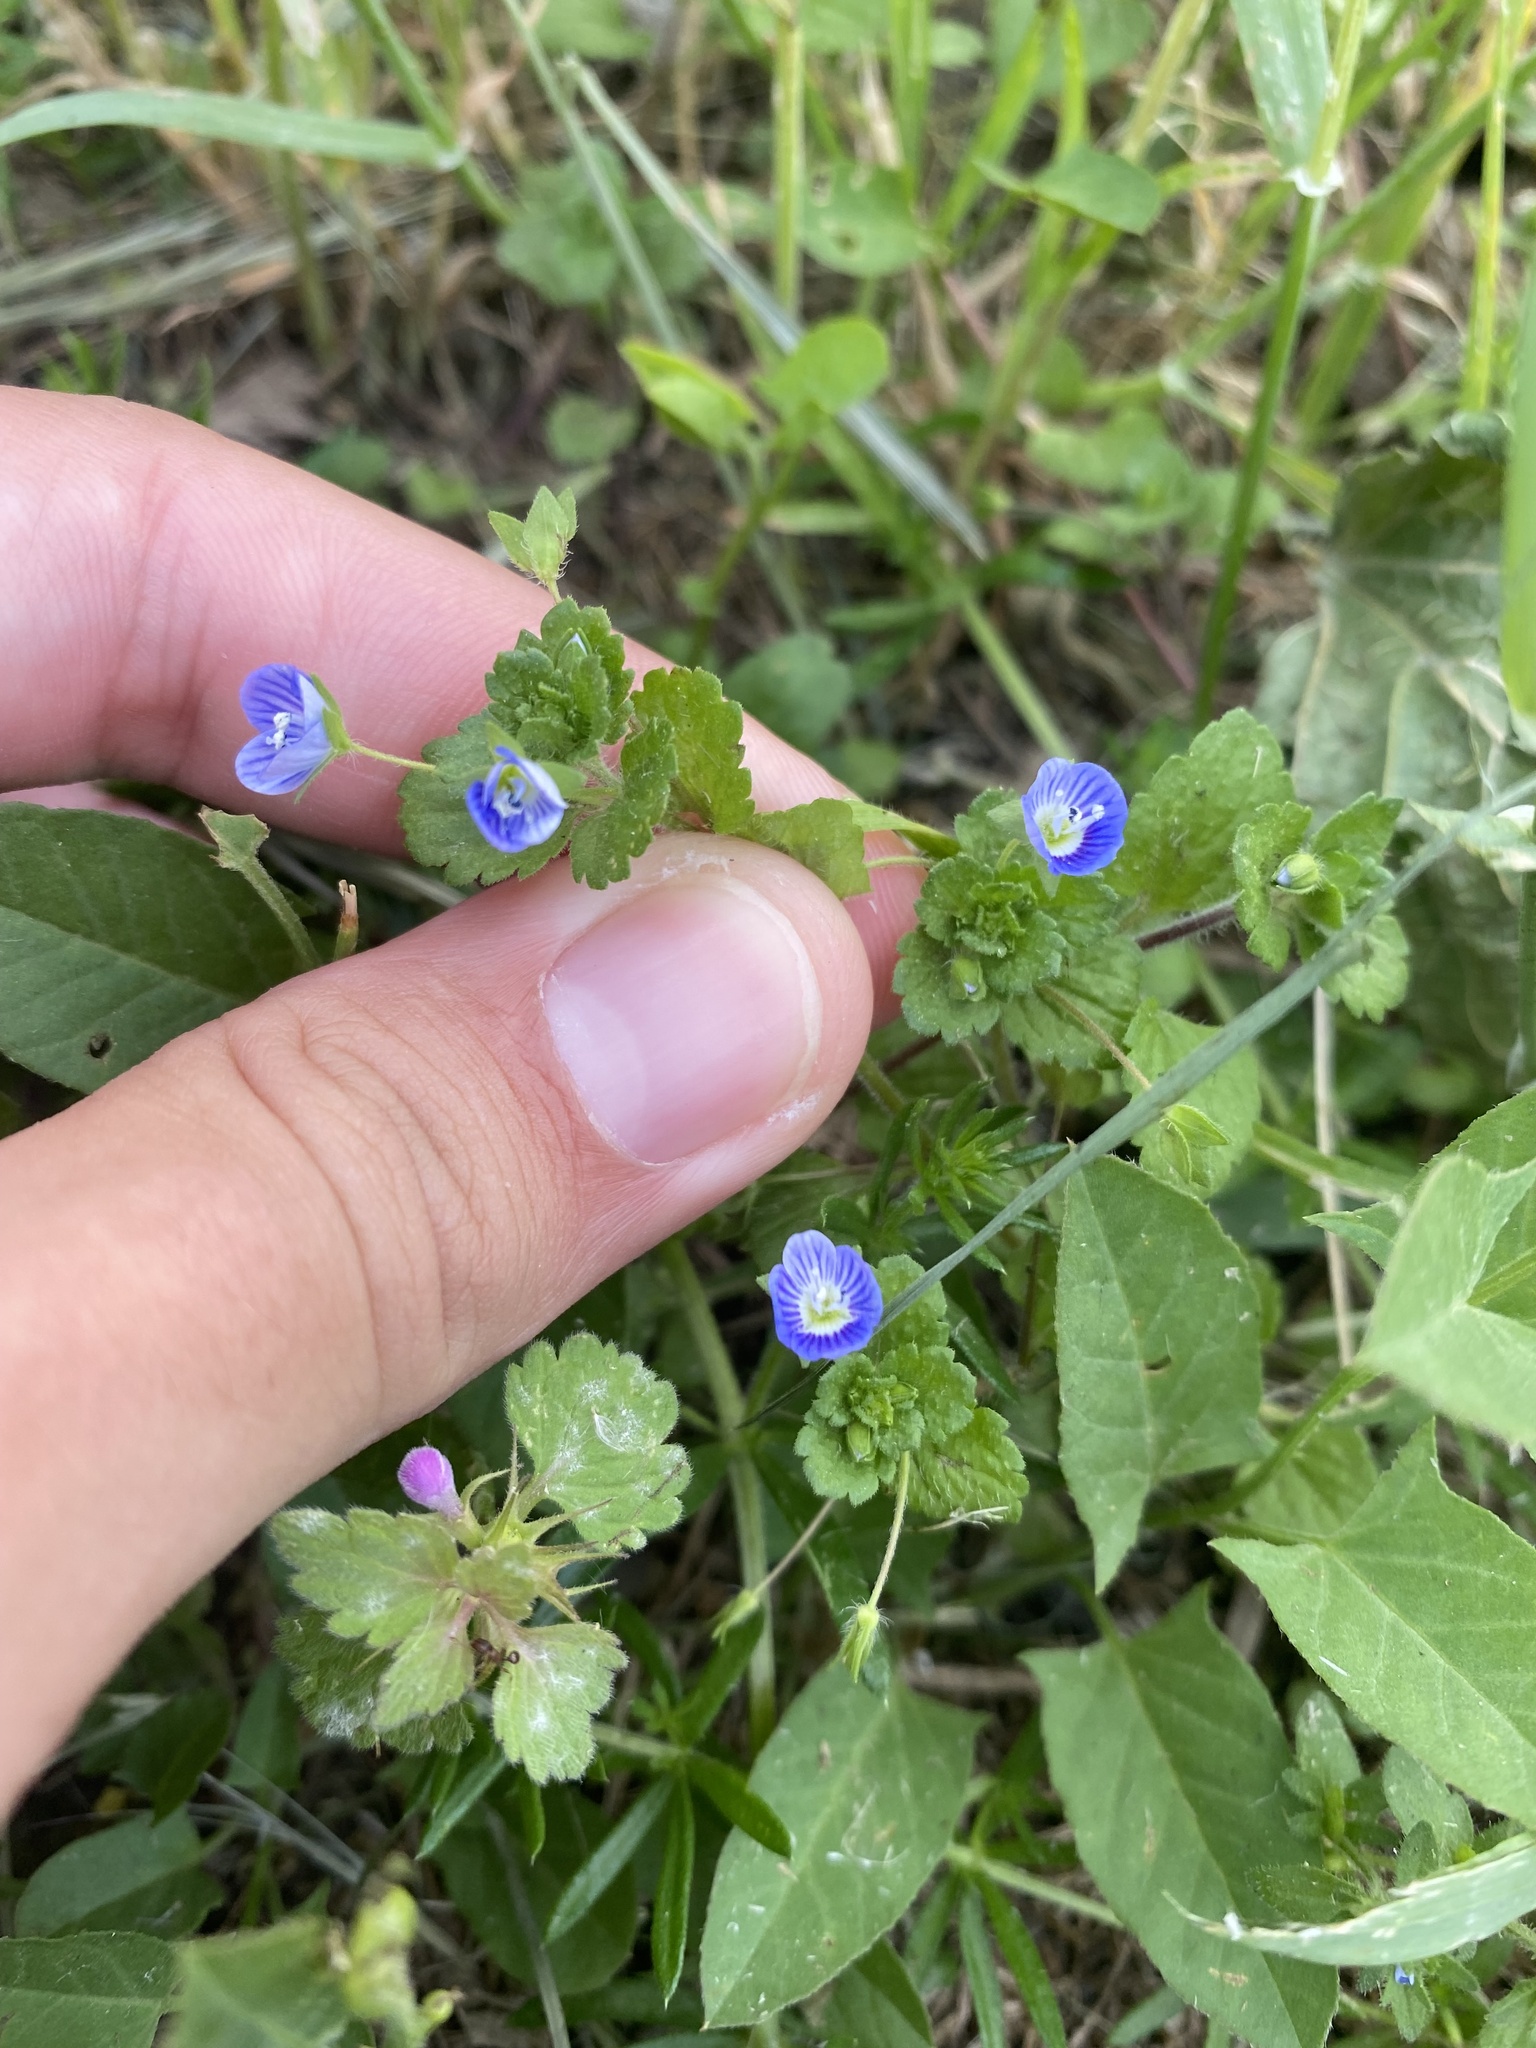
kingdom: Plantae
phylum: Tracheophyta
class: Magnoliopsida
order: Lamiales
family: Plantaginaceae
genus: Veronica
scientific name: Veronica persica
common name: Common field-speedwell
